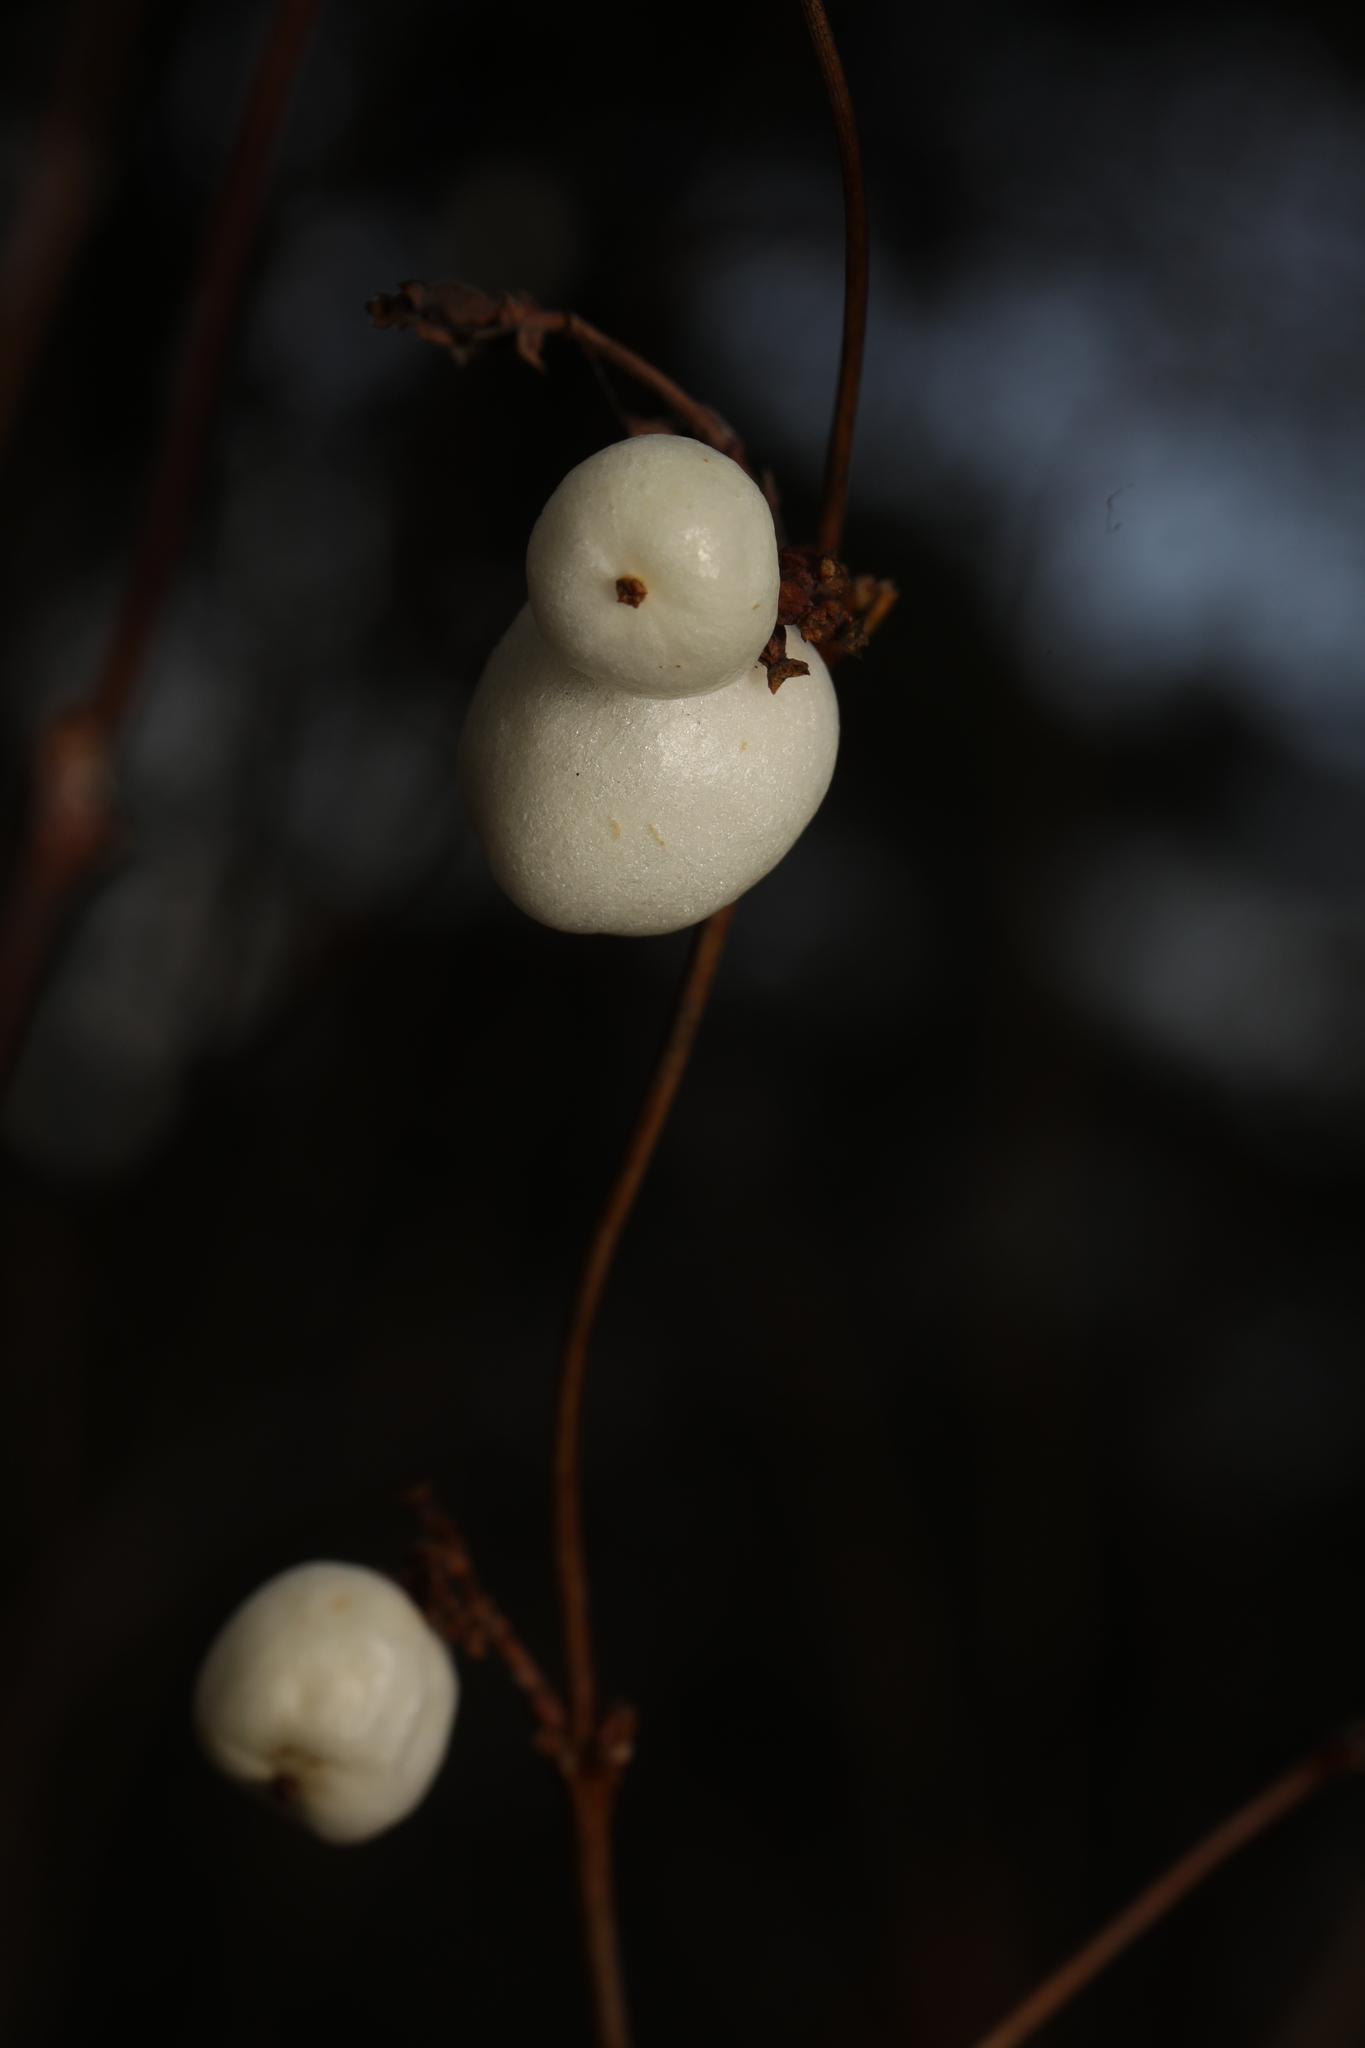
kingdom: Plantae
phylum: Tracheophyta
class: Magnoliopsida
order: Dipsacales
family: Caprifoliaceae
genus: Symphoricarpos
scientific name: Symphoricarpos albus
